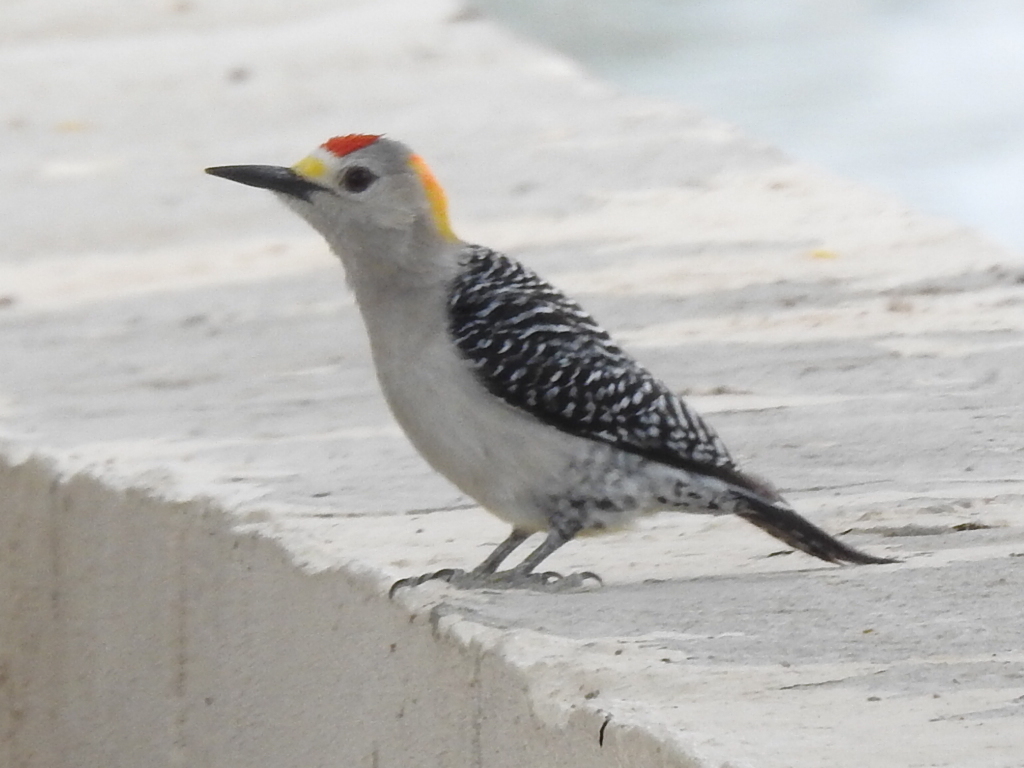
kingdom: Animalia
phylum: Chordata
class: Aves
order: Piciformes
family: Picidae
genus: Melanerpes
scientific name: Melanerpes aurifrons
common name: Golden-fronted woodpecker
